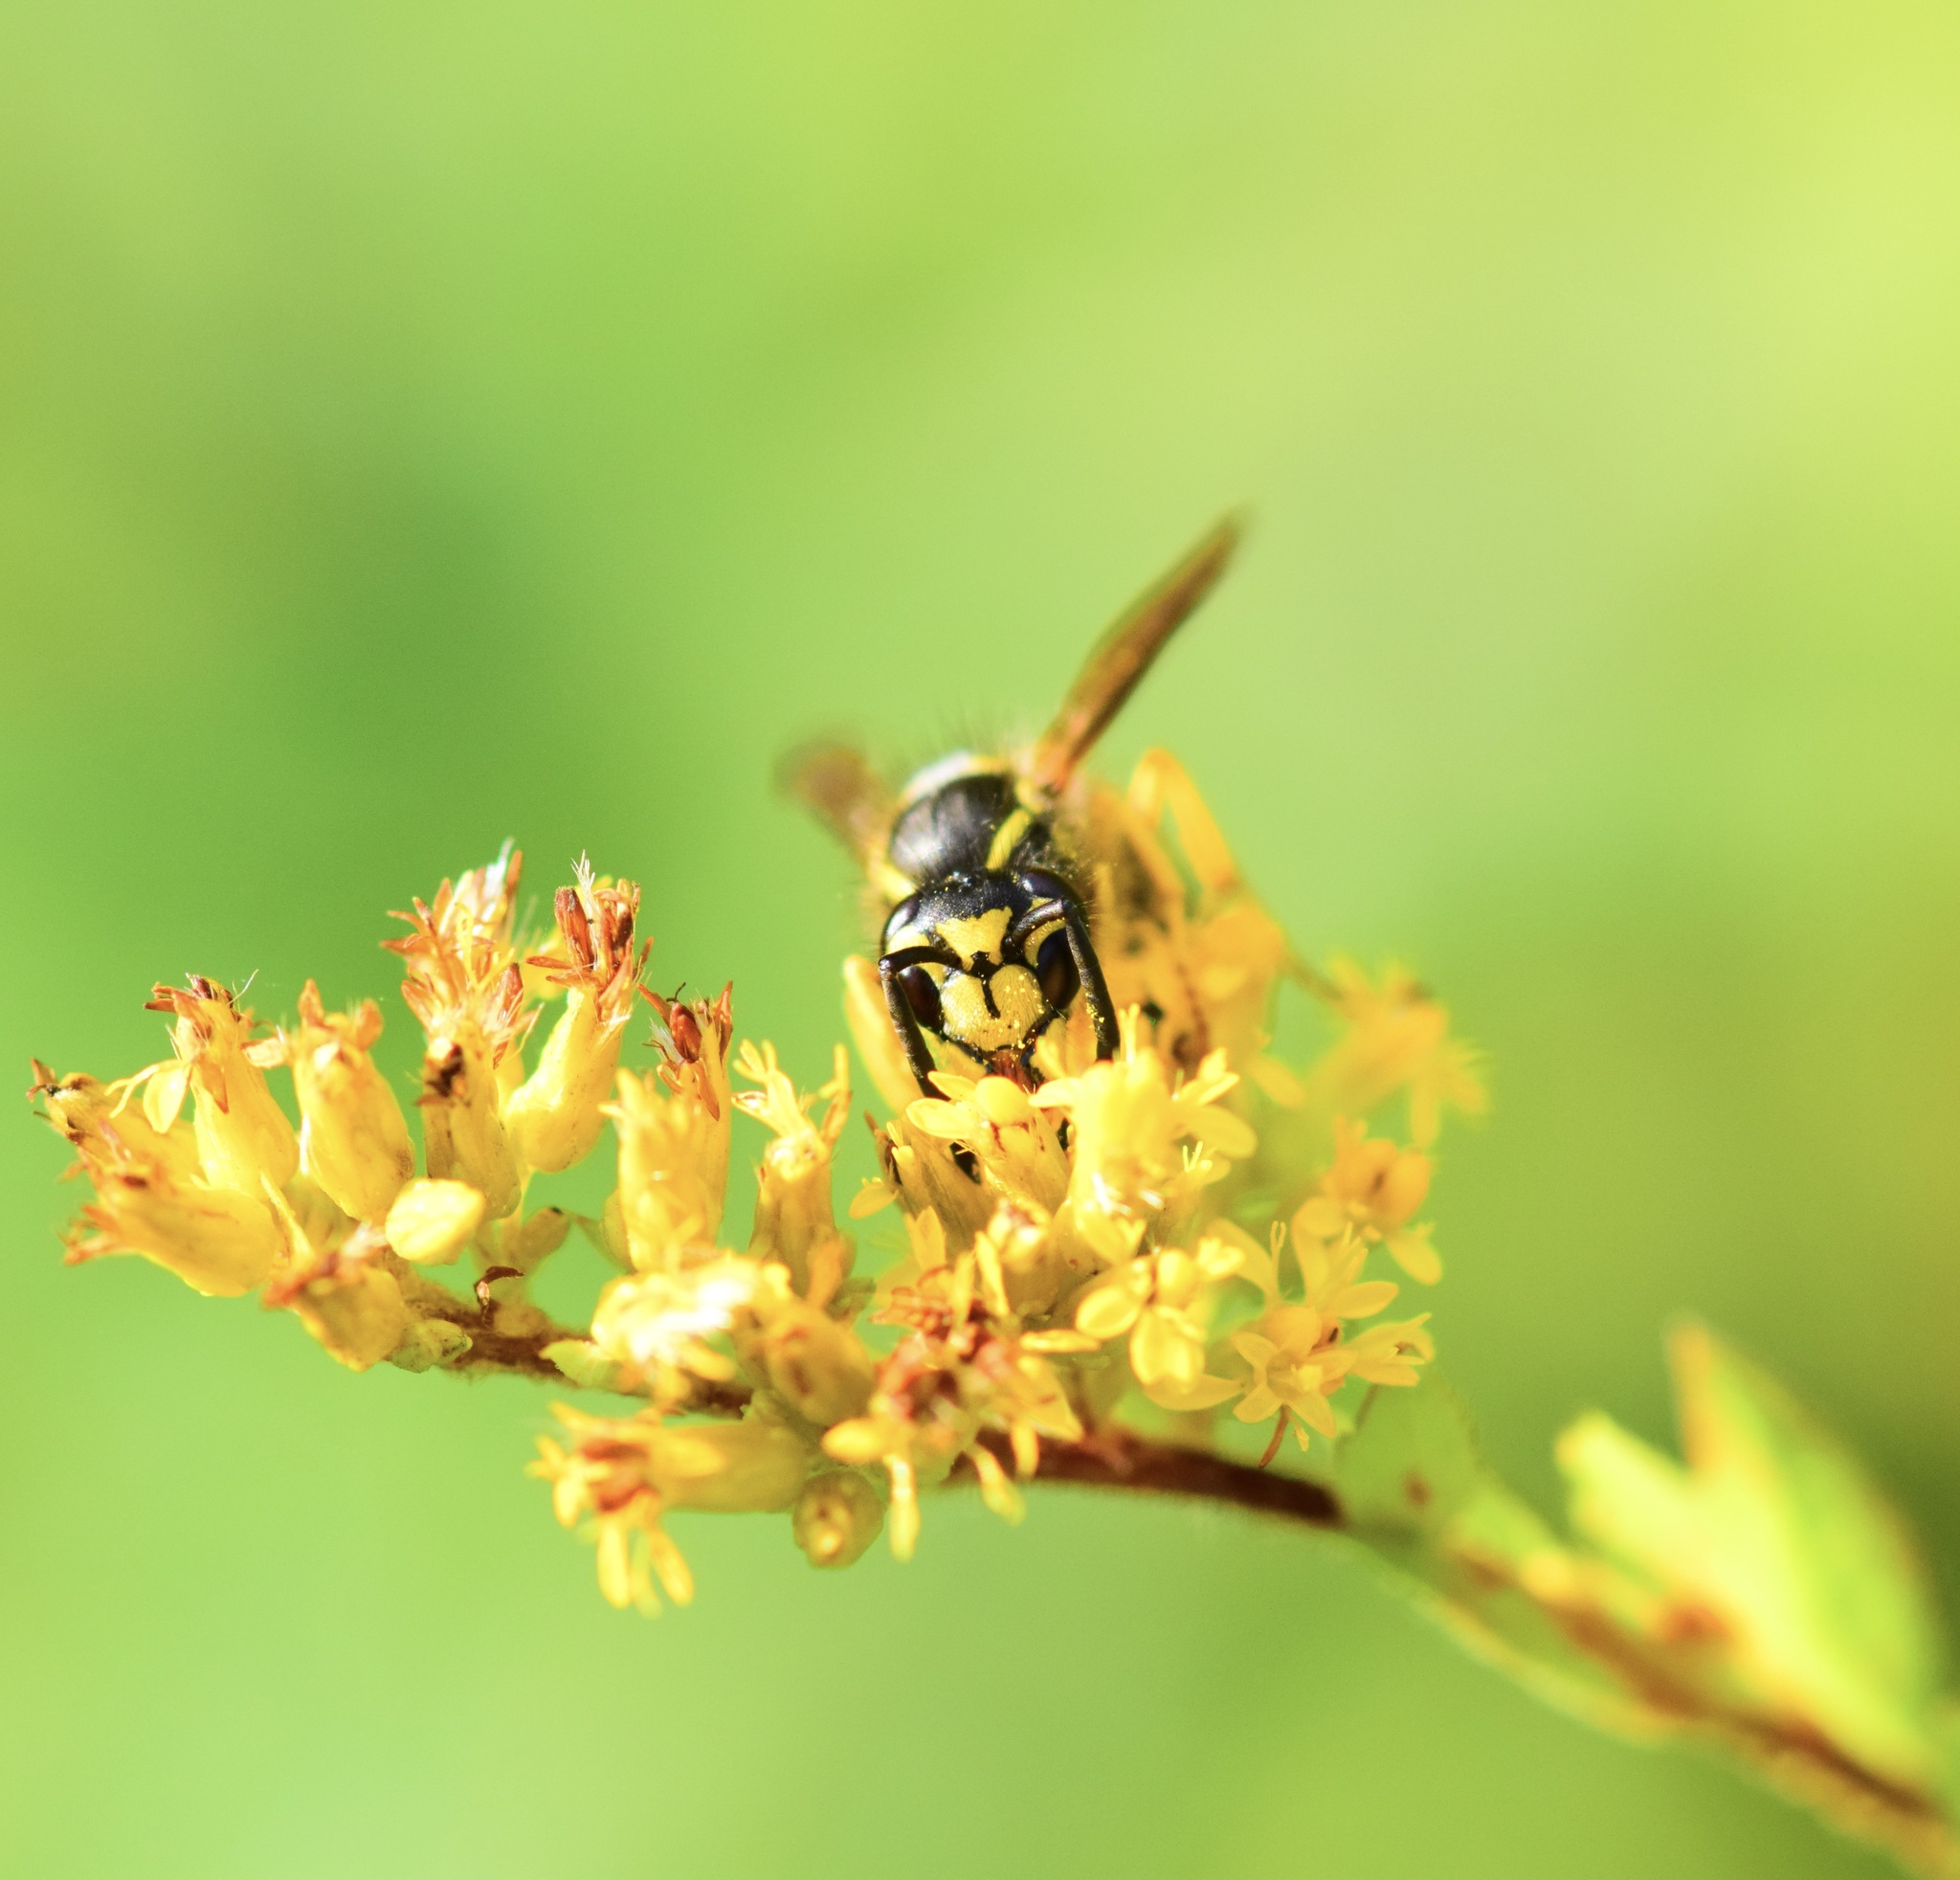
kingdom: Animalia
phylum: Arthropoda
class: Insecta
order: Hymenoptera
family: Vespidae
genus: Vespula
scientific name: Vespula
